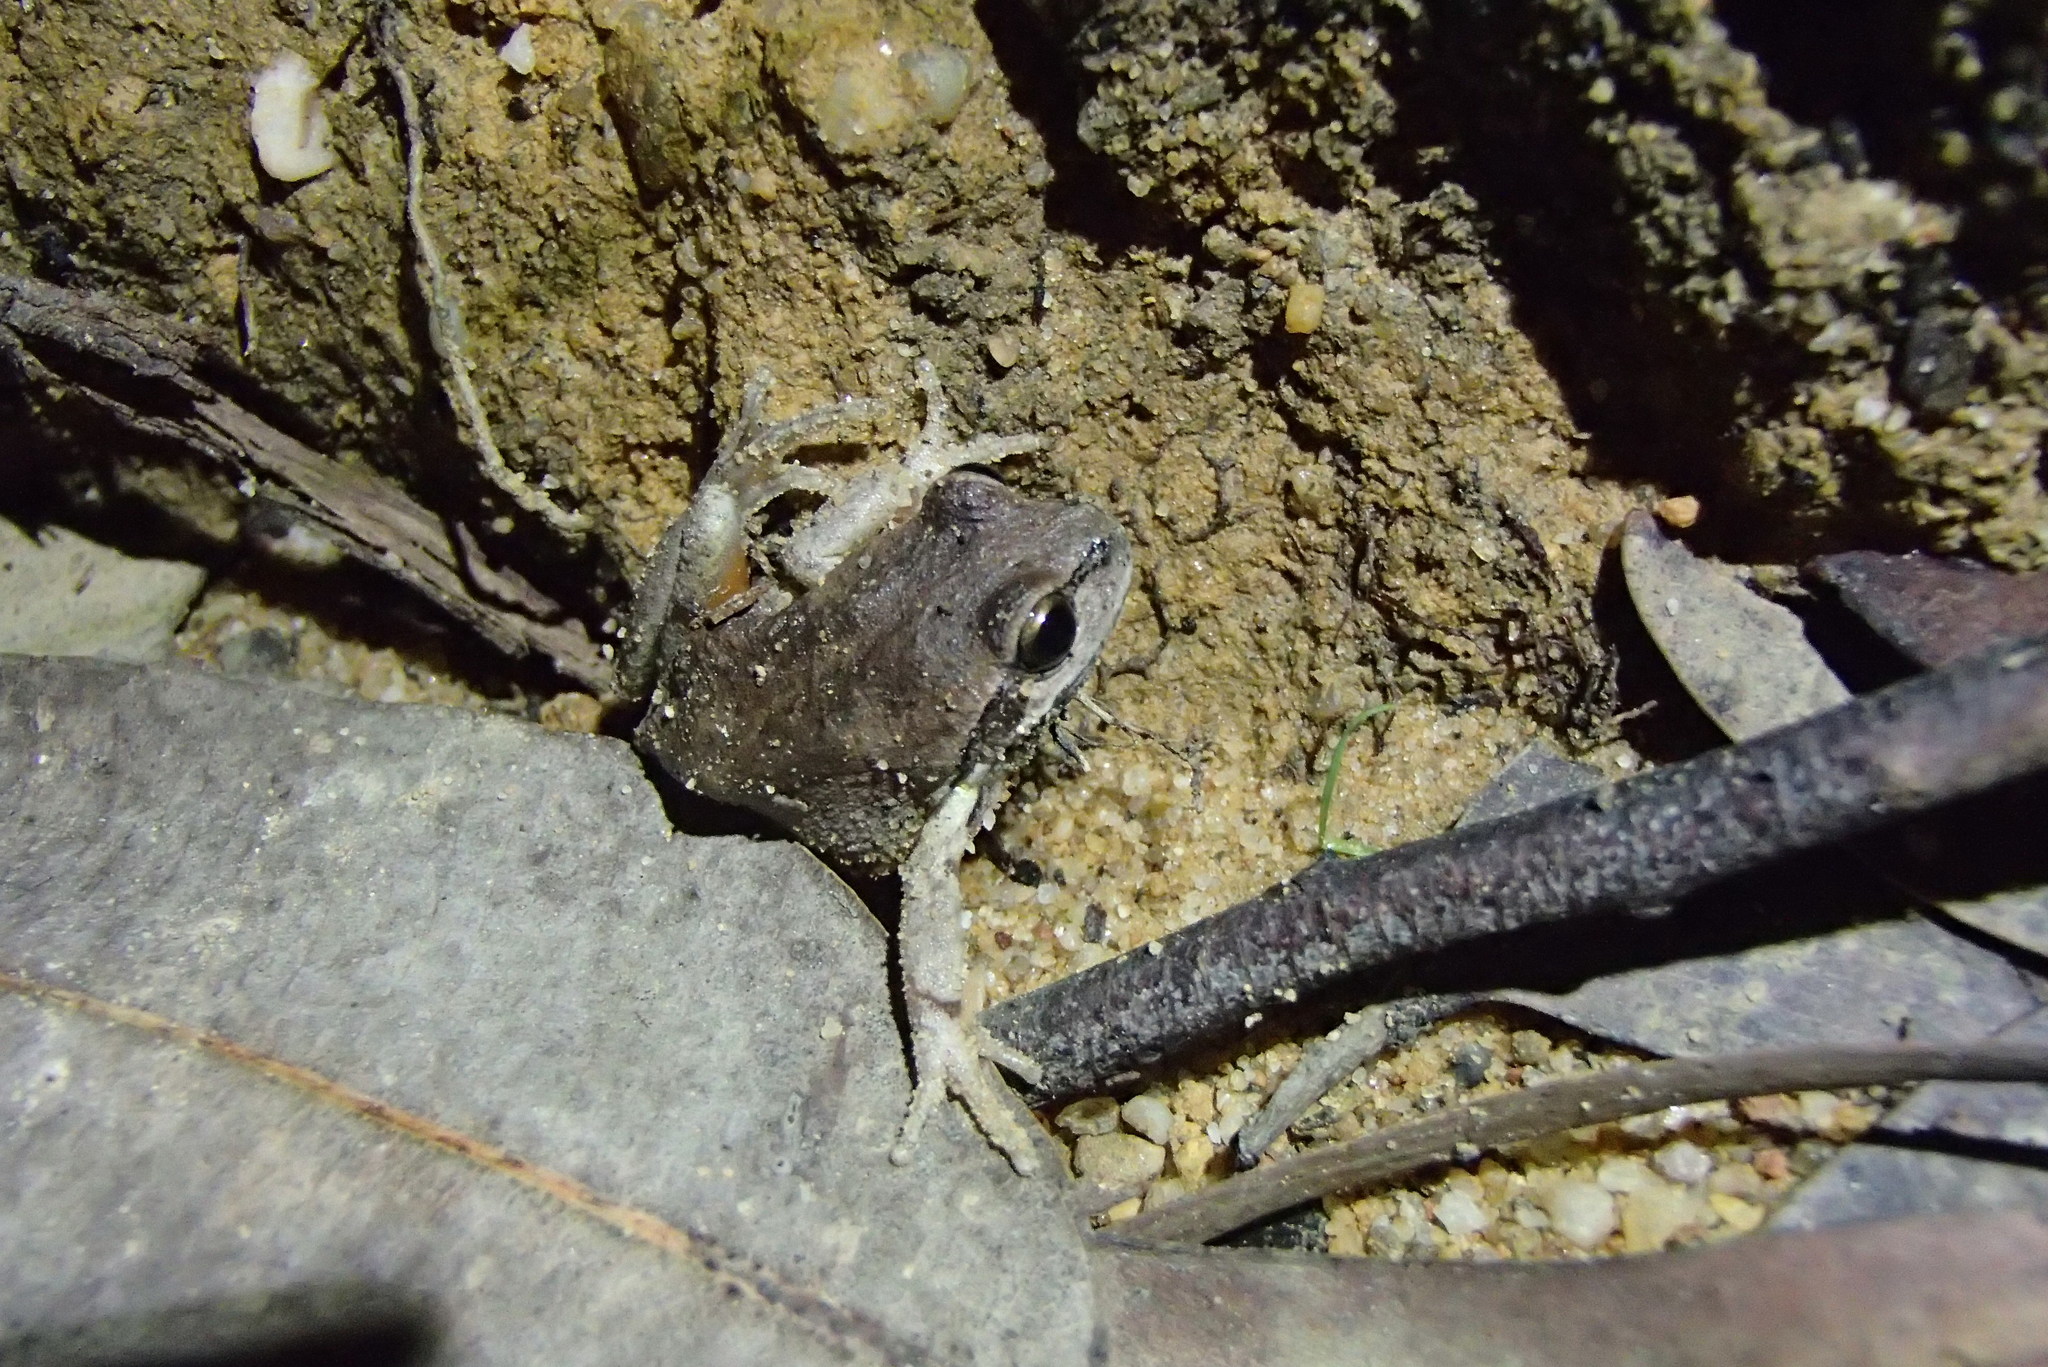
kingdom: Animalia
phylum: Chordata
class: Amphibia
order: Anura
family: Pelodryadidae
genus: Litoria
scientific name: Litoria verreauxii
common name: Alpine tree frog
